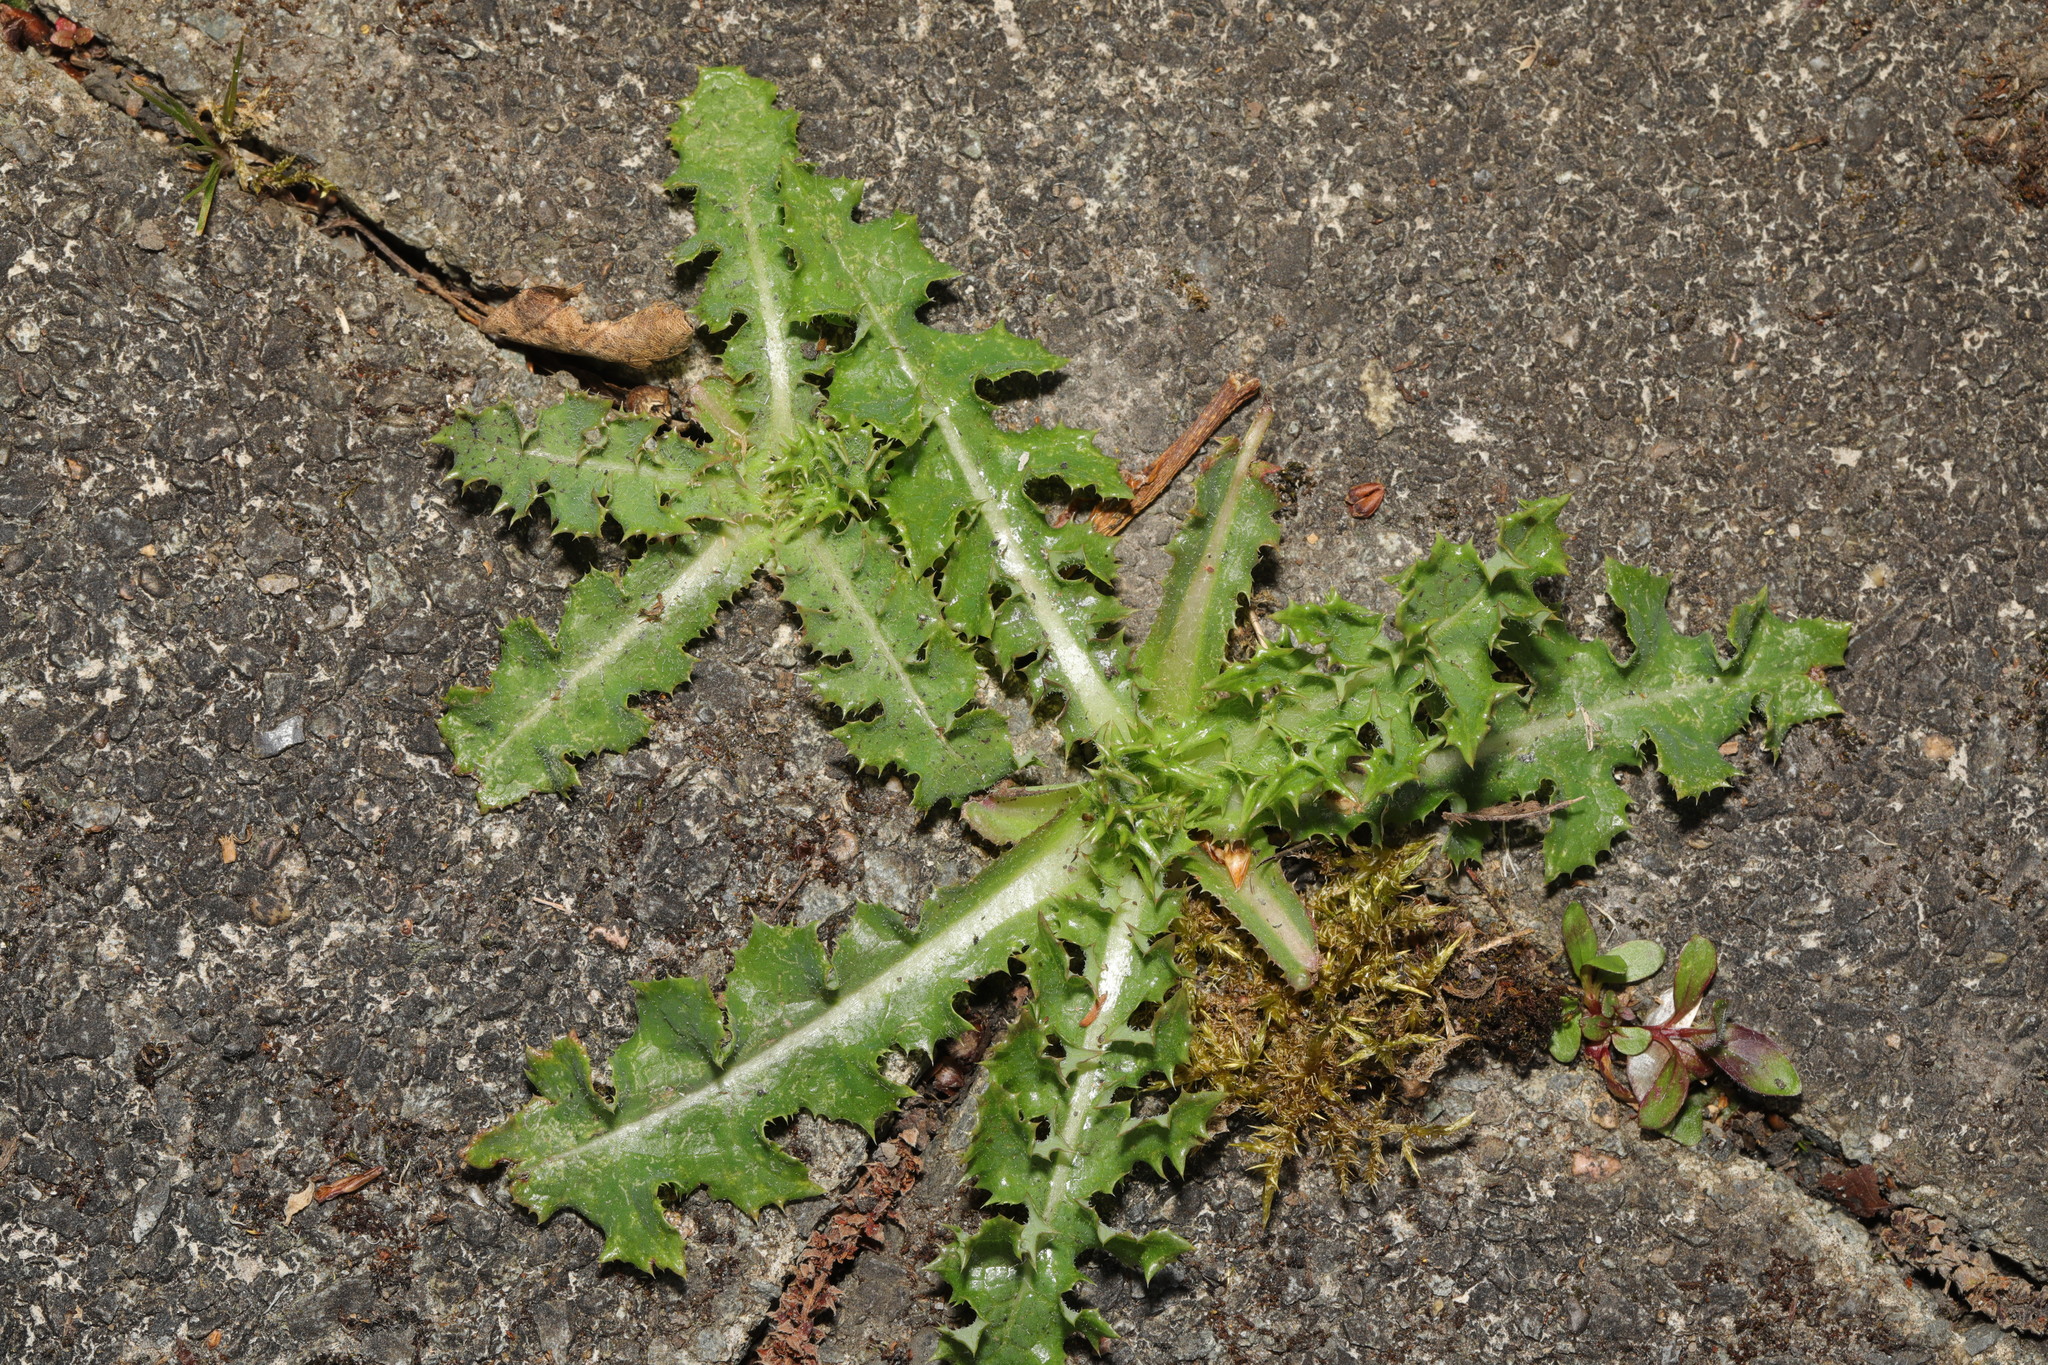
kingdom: Plantae
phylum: Tracheophyta
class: Magnoliopsida
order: Asterales
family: Asteraceae
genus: Sonchus
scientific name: Sonchus asper
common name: Prickly sow-thistle
